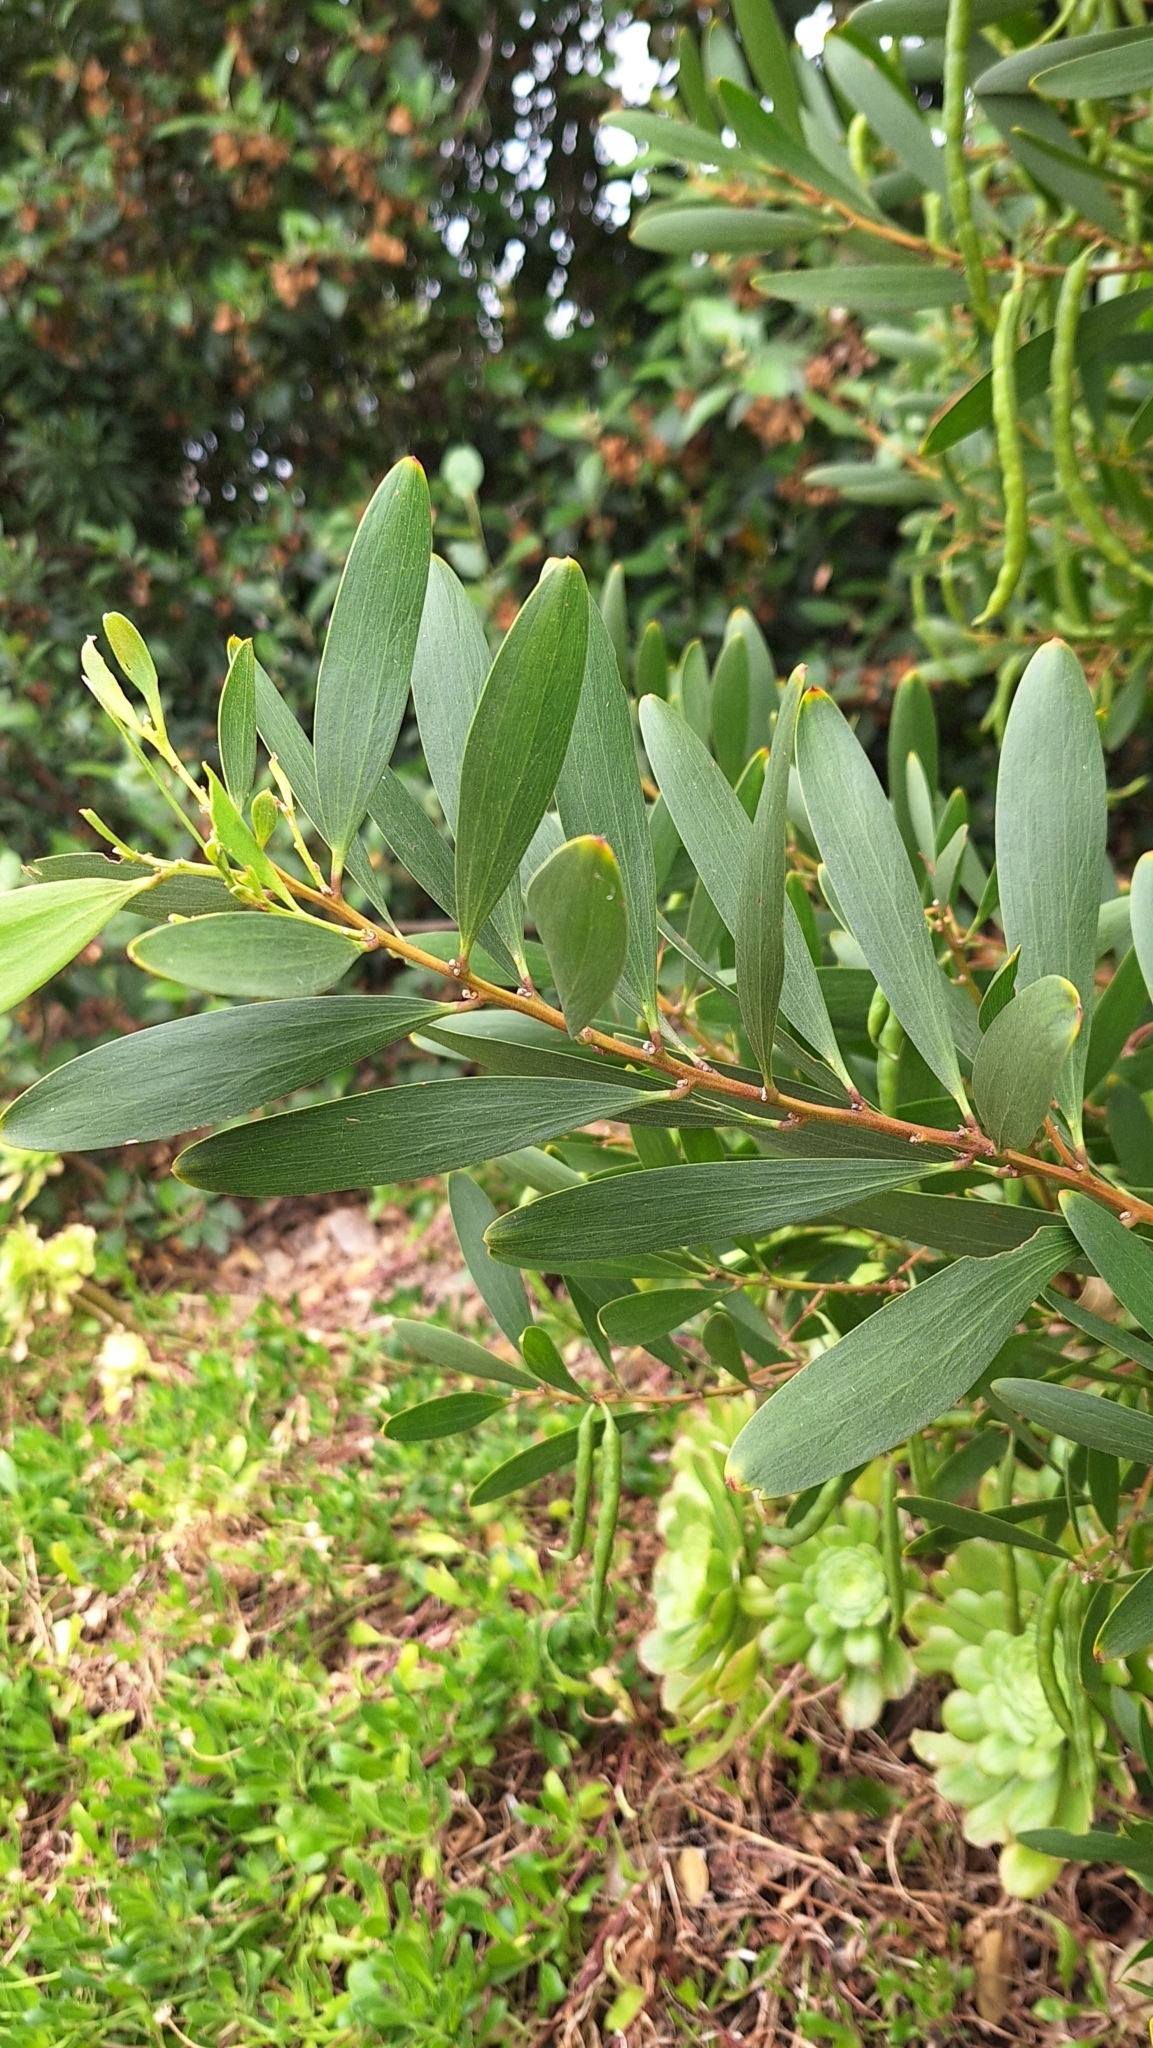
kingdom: Plantae
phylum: Tracheophyta
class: Magnoliopsida
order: Fabales
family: Fabaceae
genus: Acacia
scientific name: Acacia longifolia
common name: Sydney golden wattle
